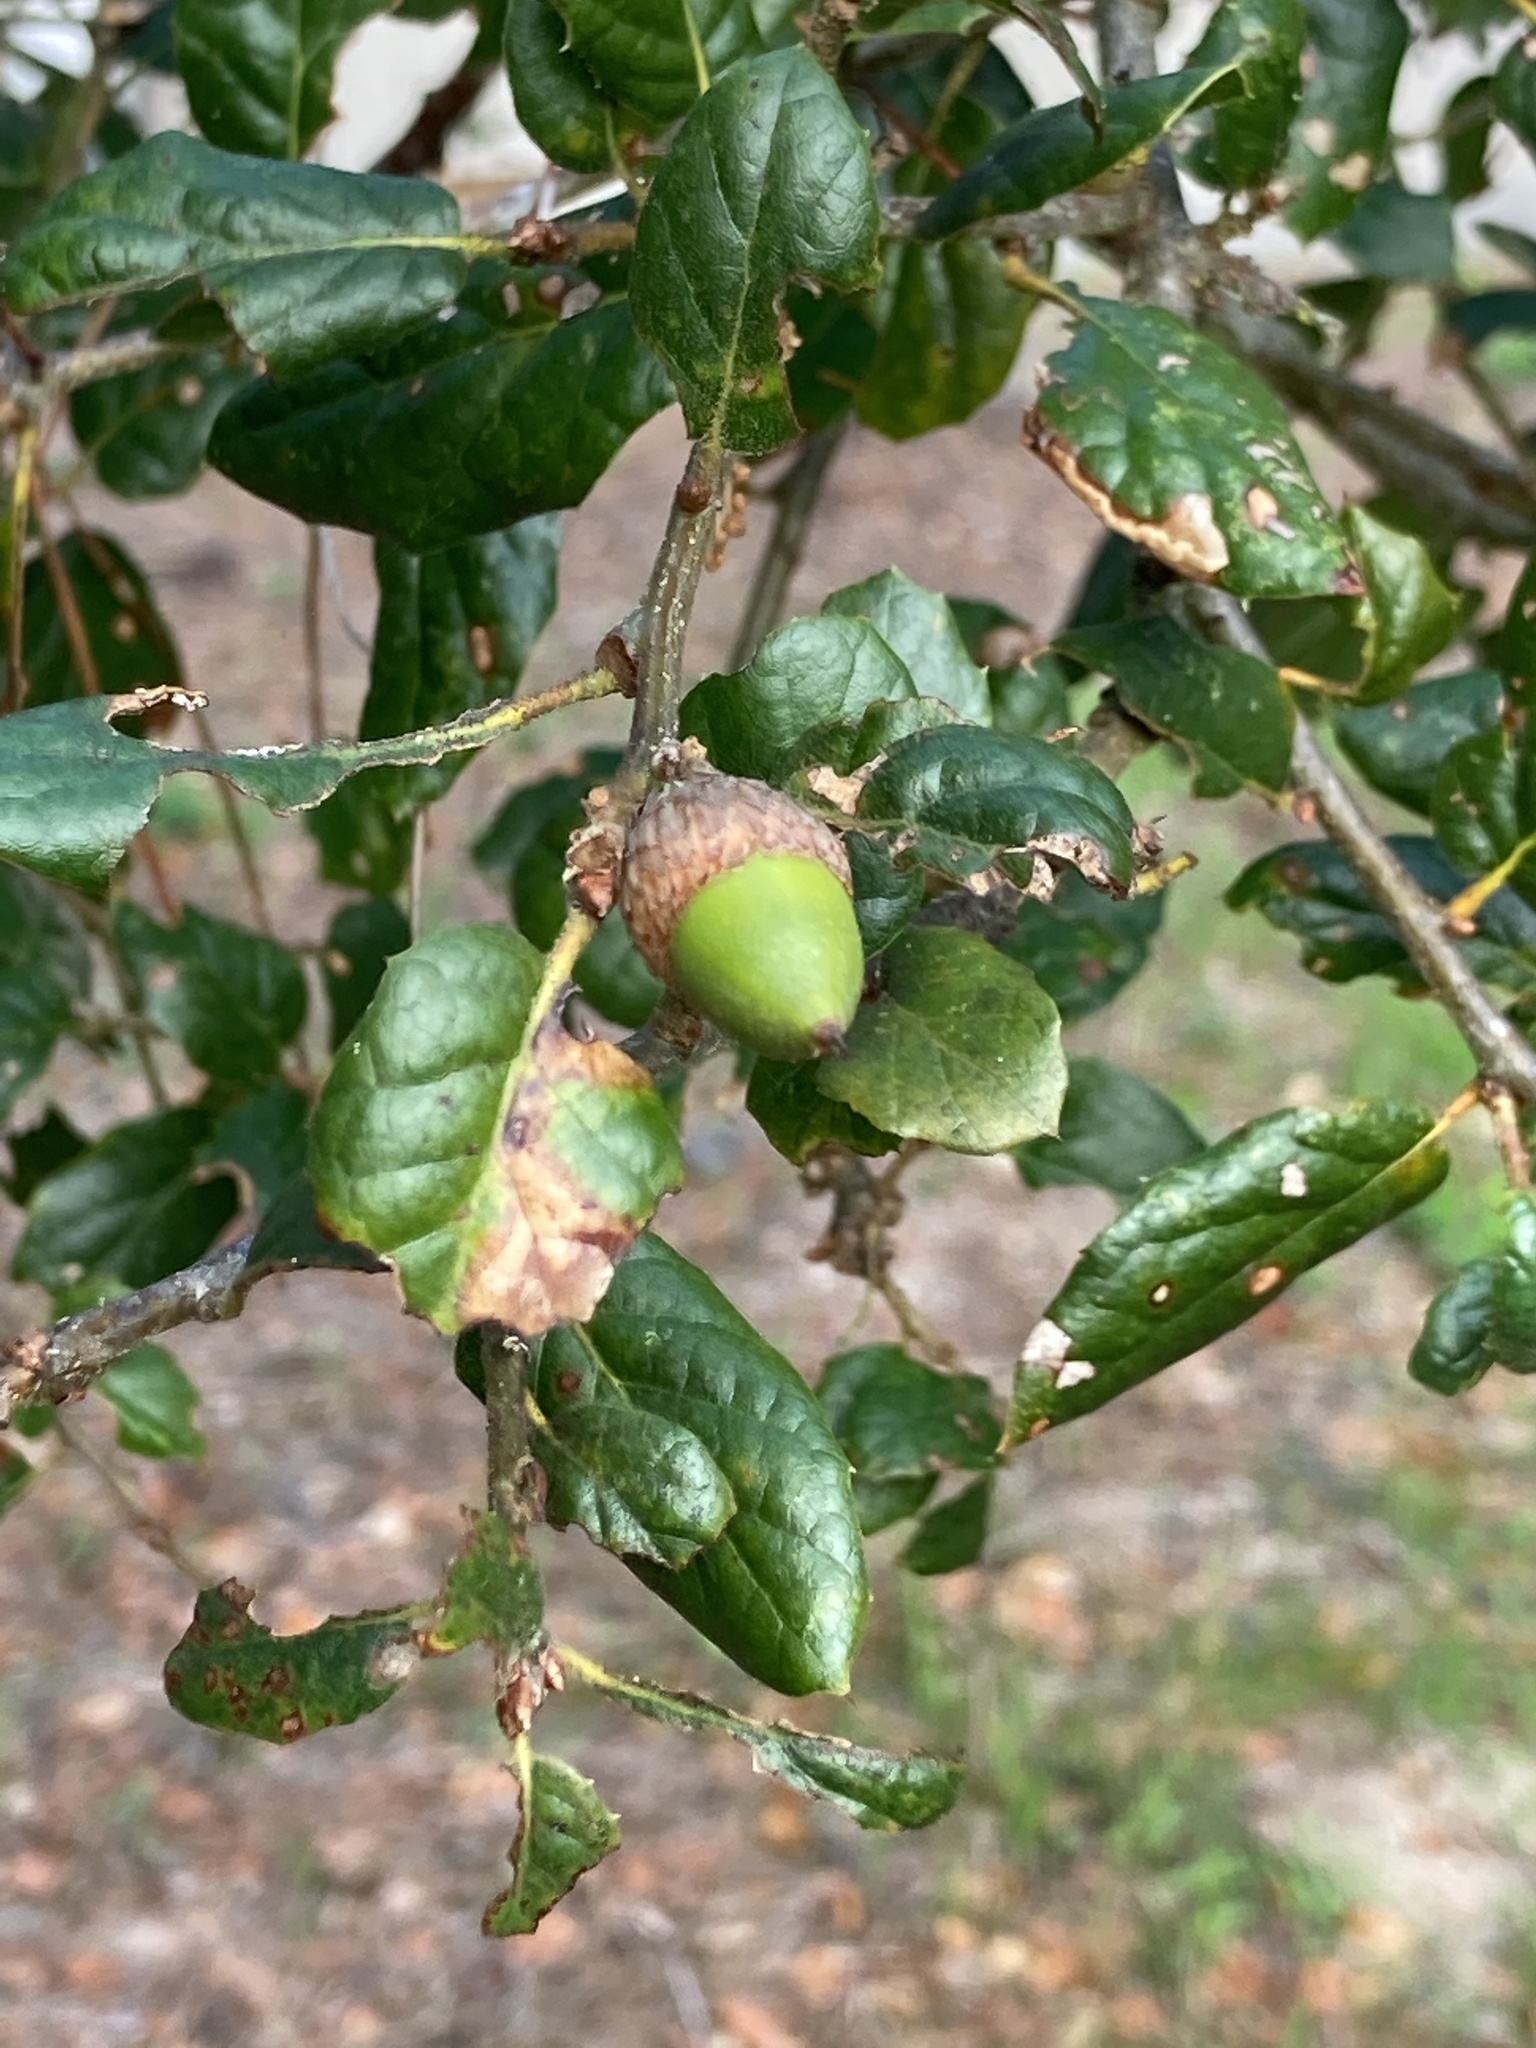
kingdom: Plantae
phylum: Tracheophyta
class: Magnoliopsida
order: Fagales
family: Fagaceae
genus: Quercus
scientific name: Quercus agrifolia
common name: California live oak
